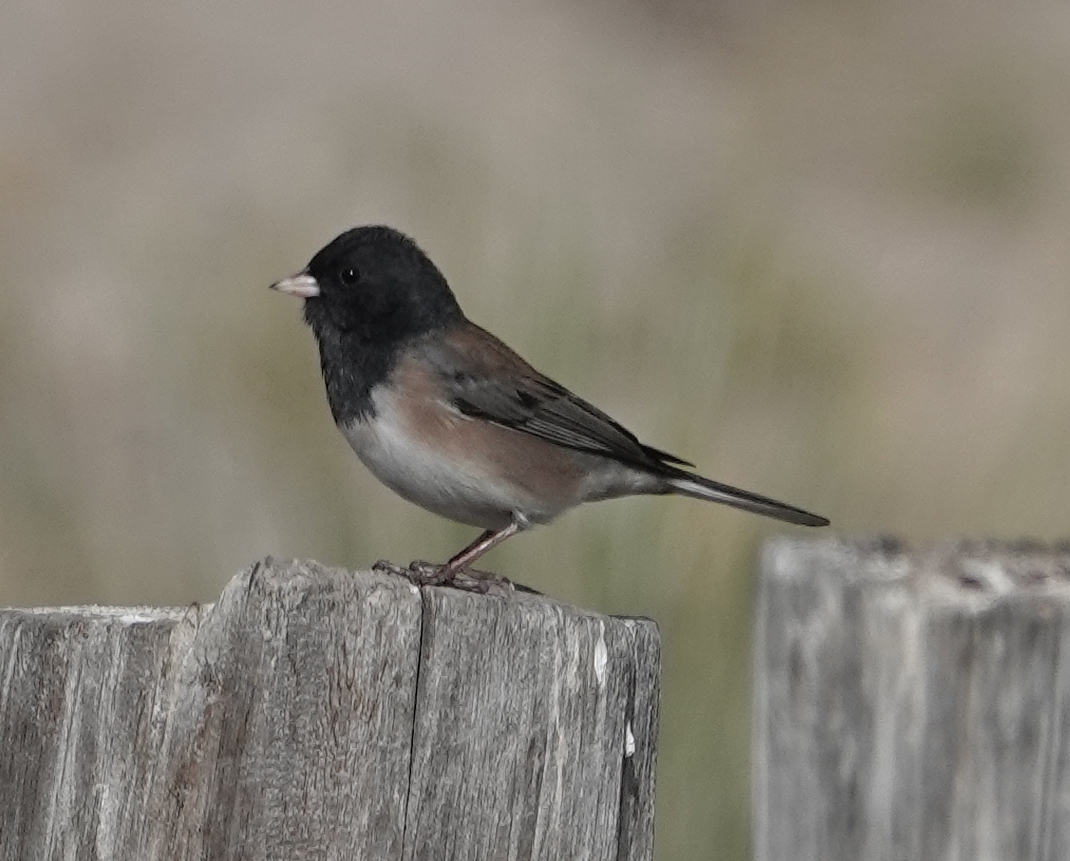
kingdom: Animalia
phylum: Chordata
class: Aves
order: Passeriformes
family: Passerellidae
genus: Junco
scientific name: Junco hyemalis
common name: Dark-eyed junco
